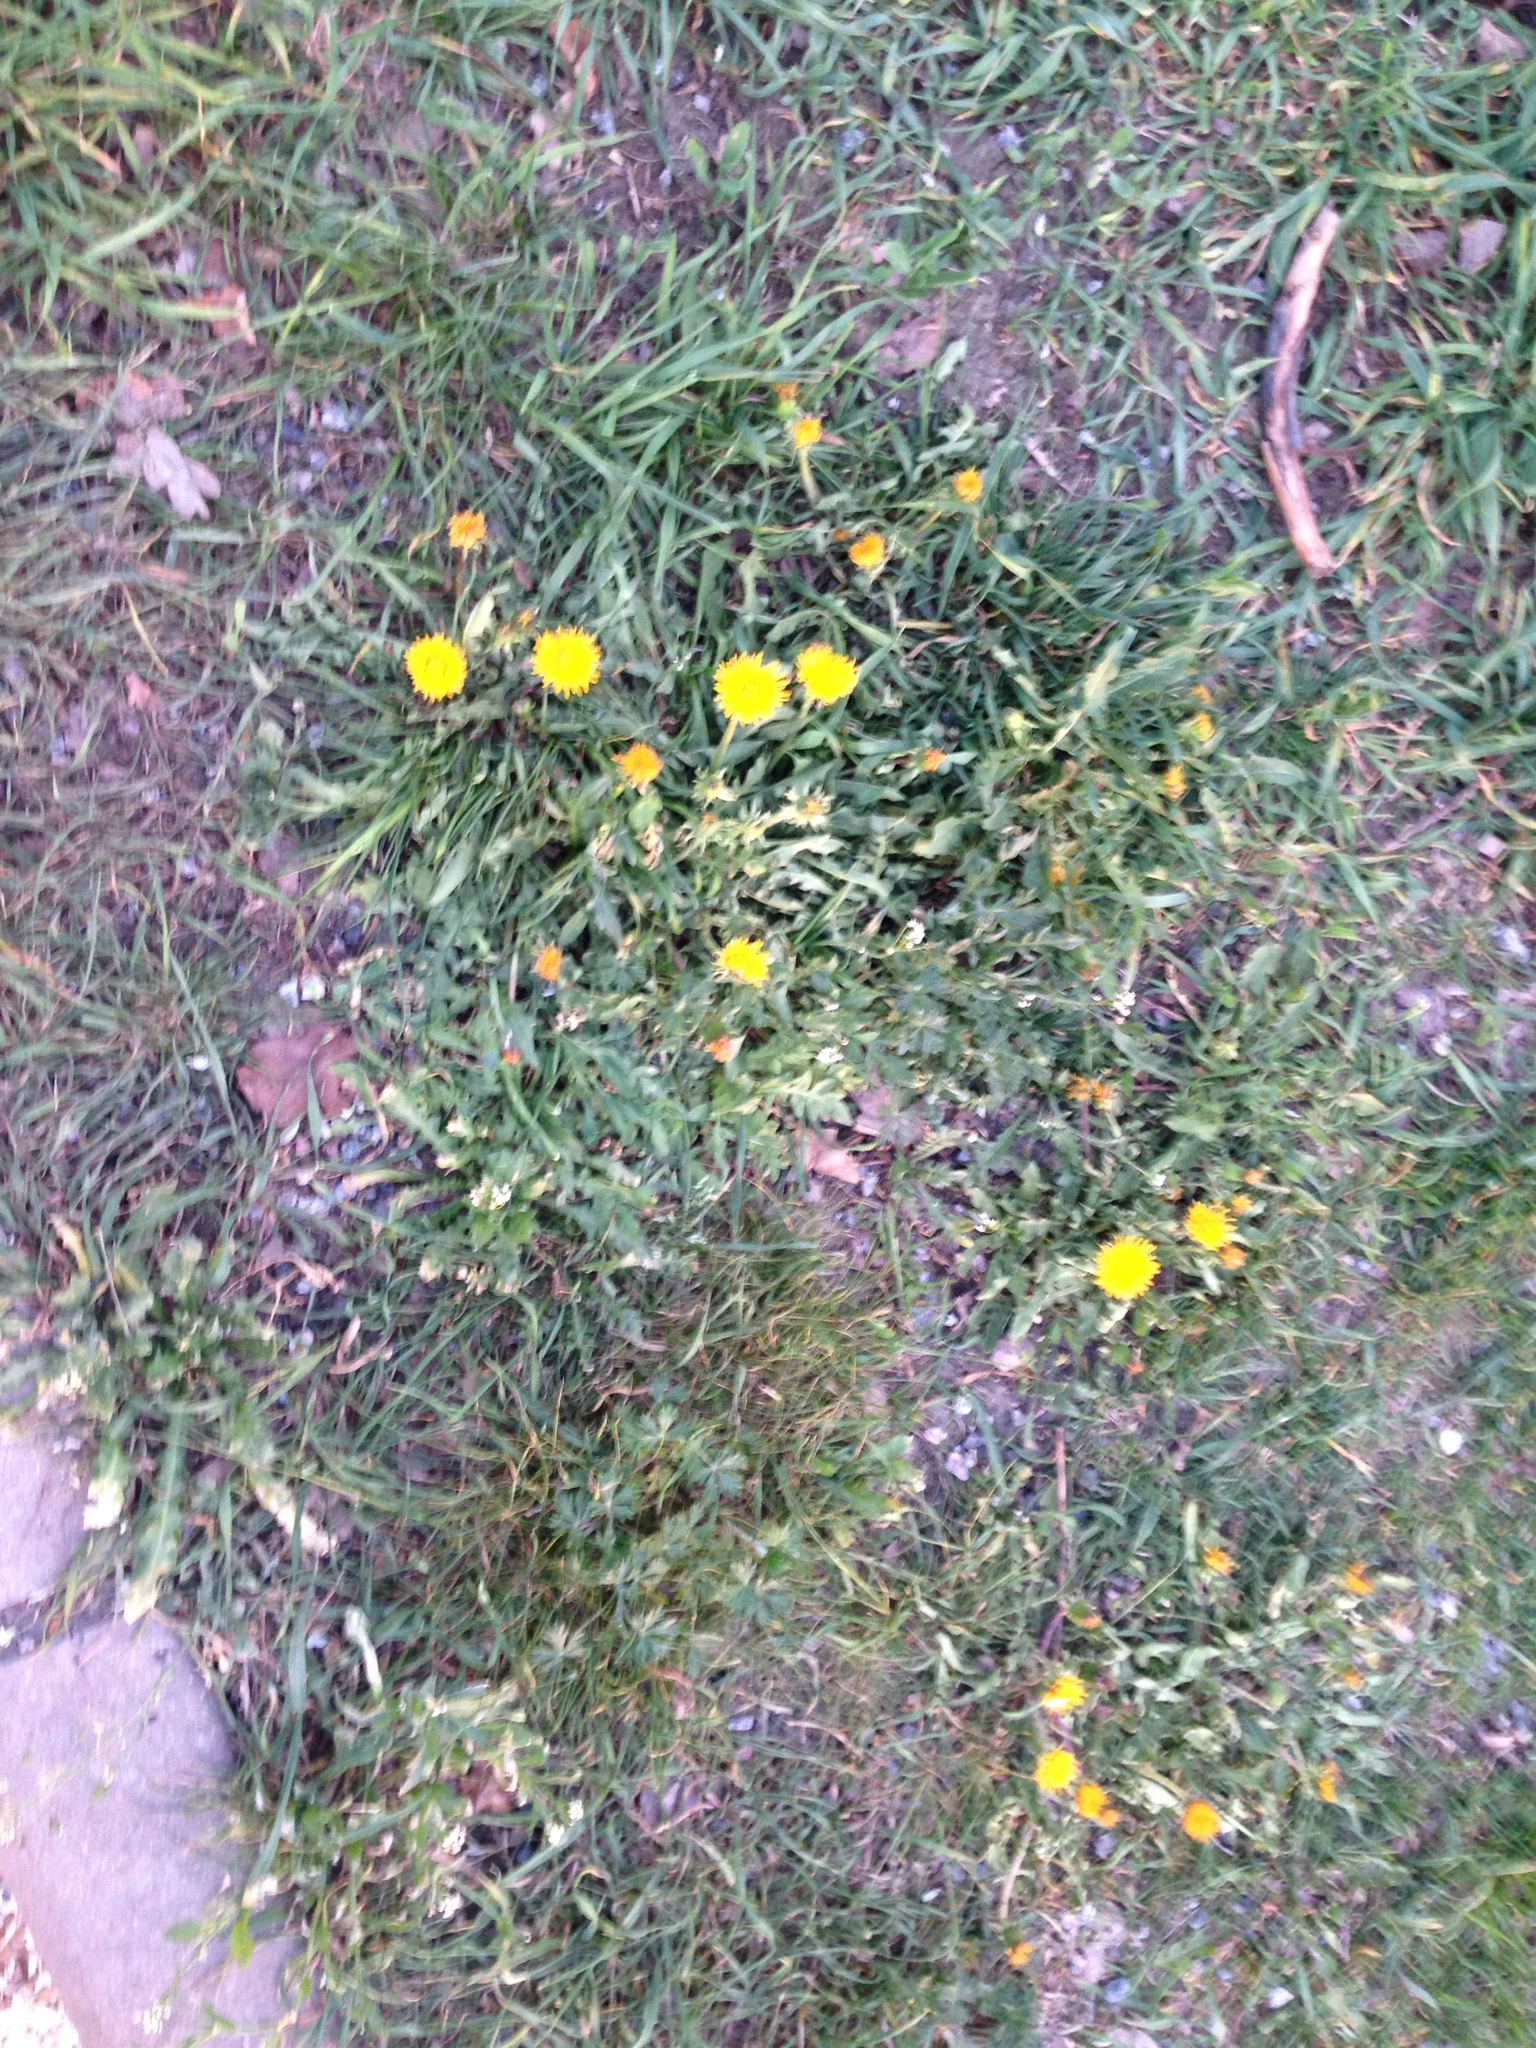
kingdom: Plantae
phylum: Tracheophyta
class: Magnoliopsida
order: Asterales
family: Asteraceae
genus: Taraxacum
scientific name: Taraxacum officinale
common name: Common dandelion
